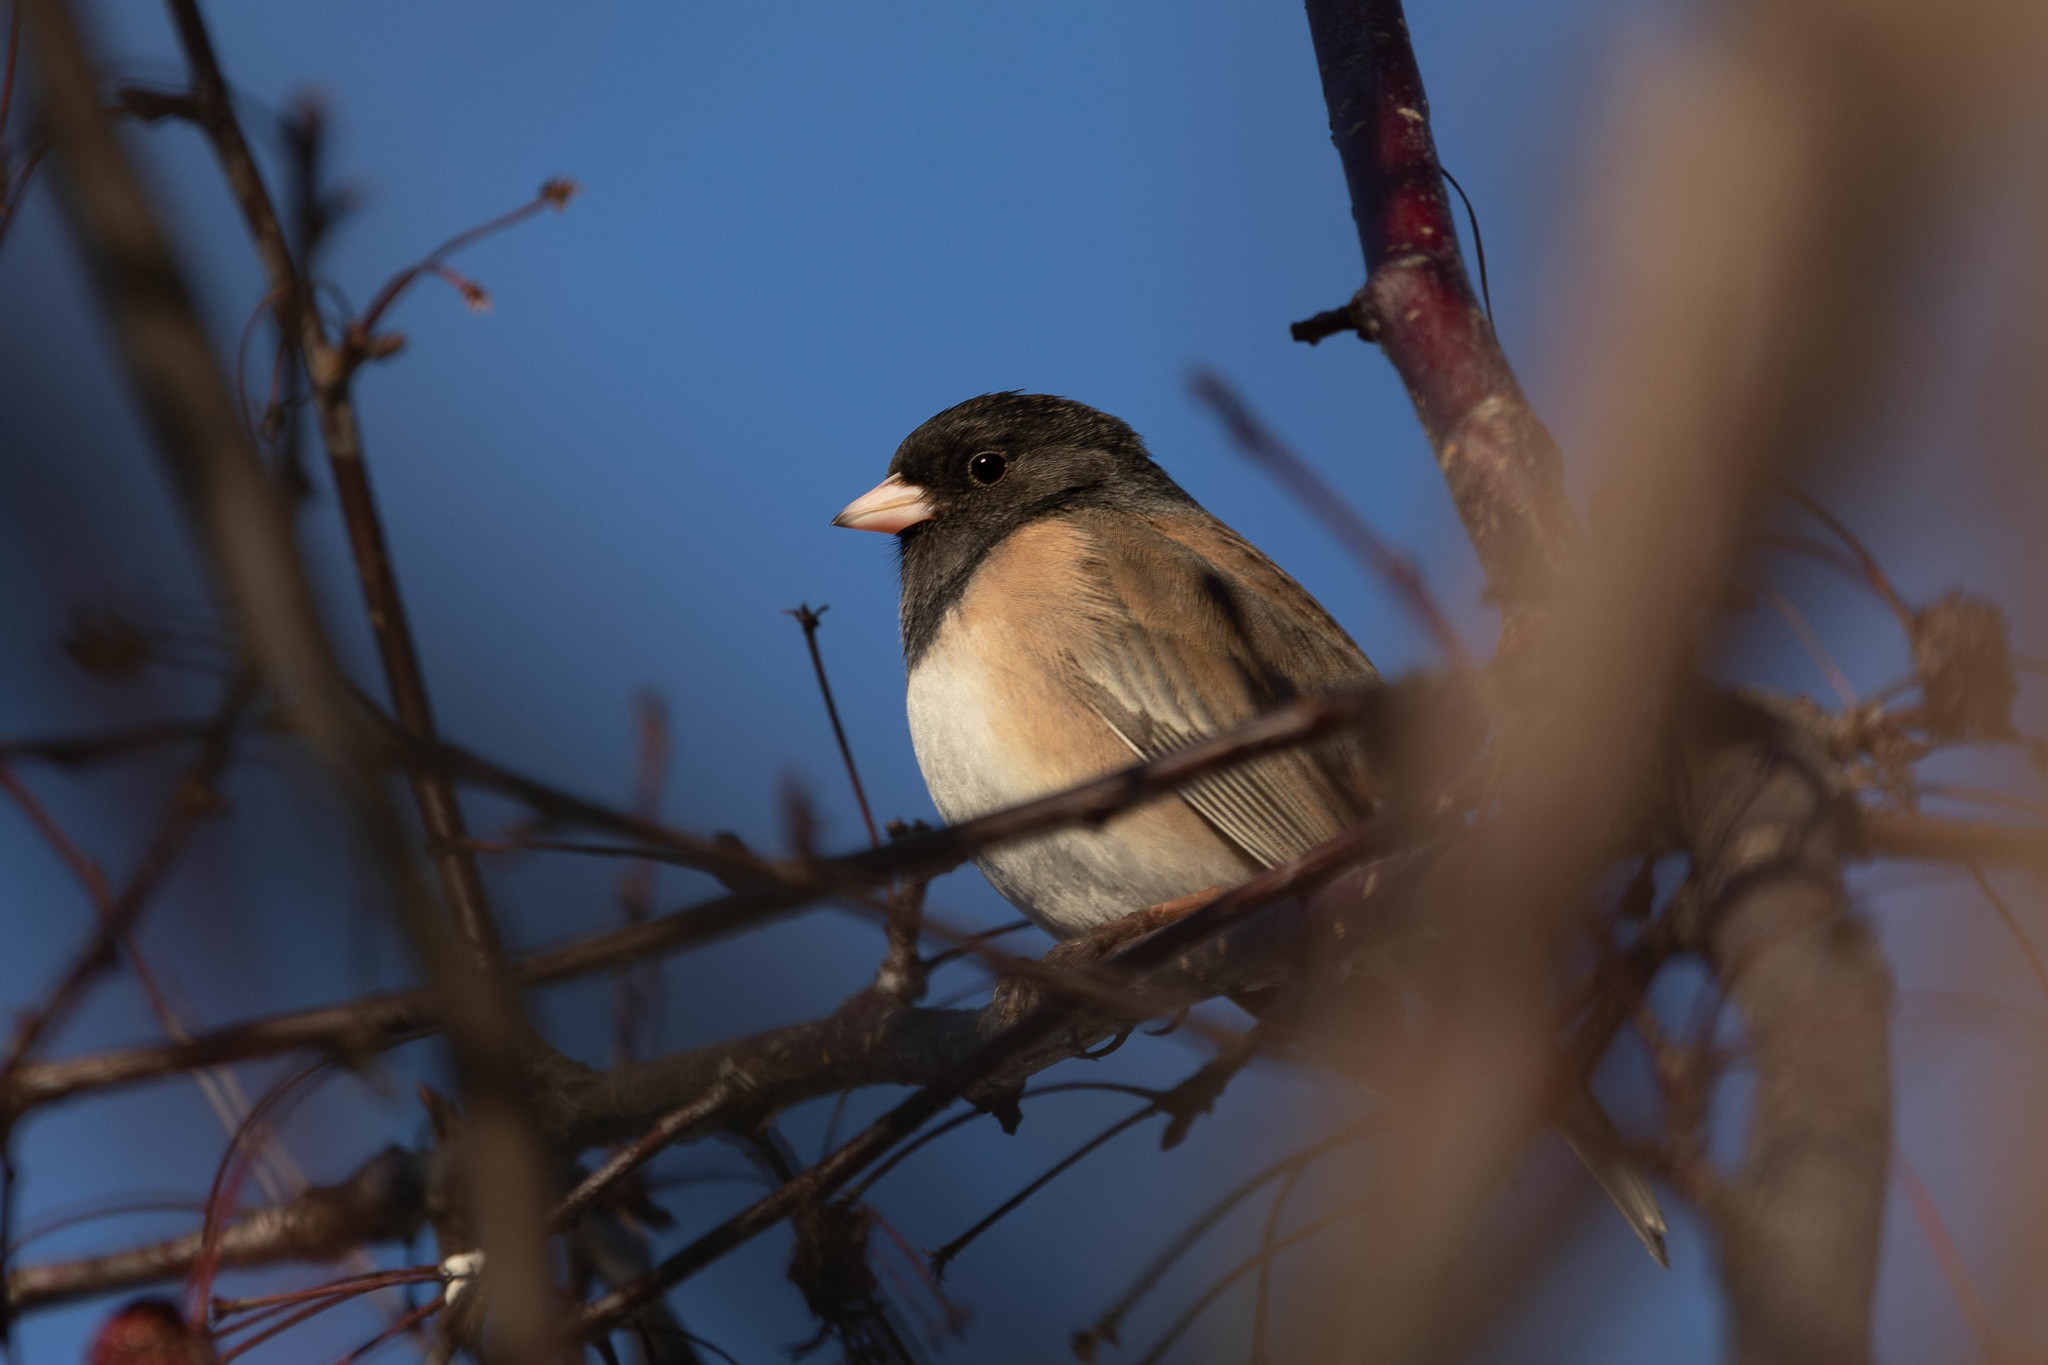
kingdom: Animalia
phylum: Chordata
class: Aves
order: Passeriformes
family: Passerellidae
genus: Junco
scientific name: Junco hyemalis
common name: Dark-eyed junco
